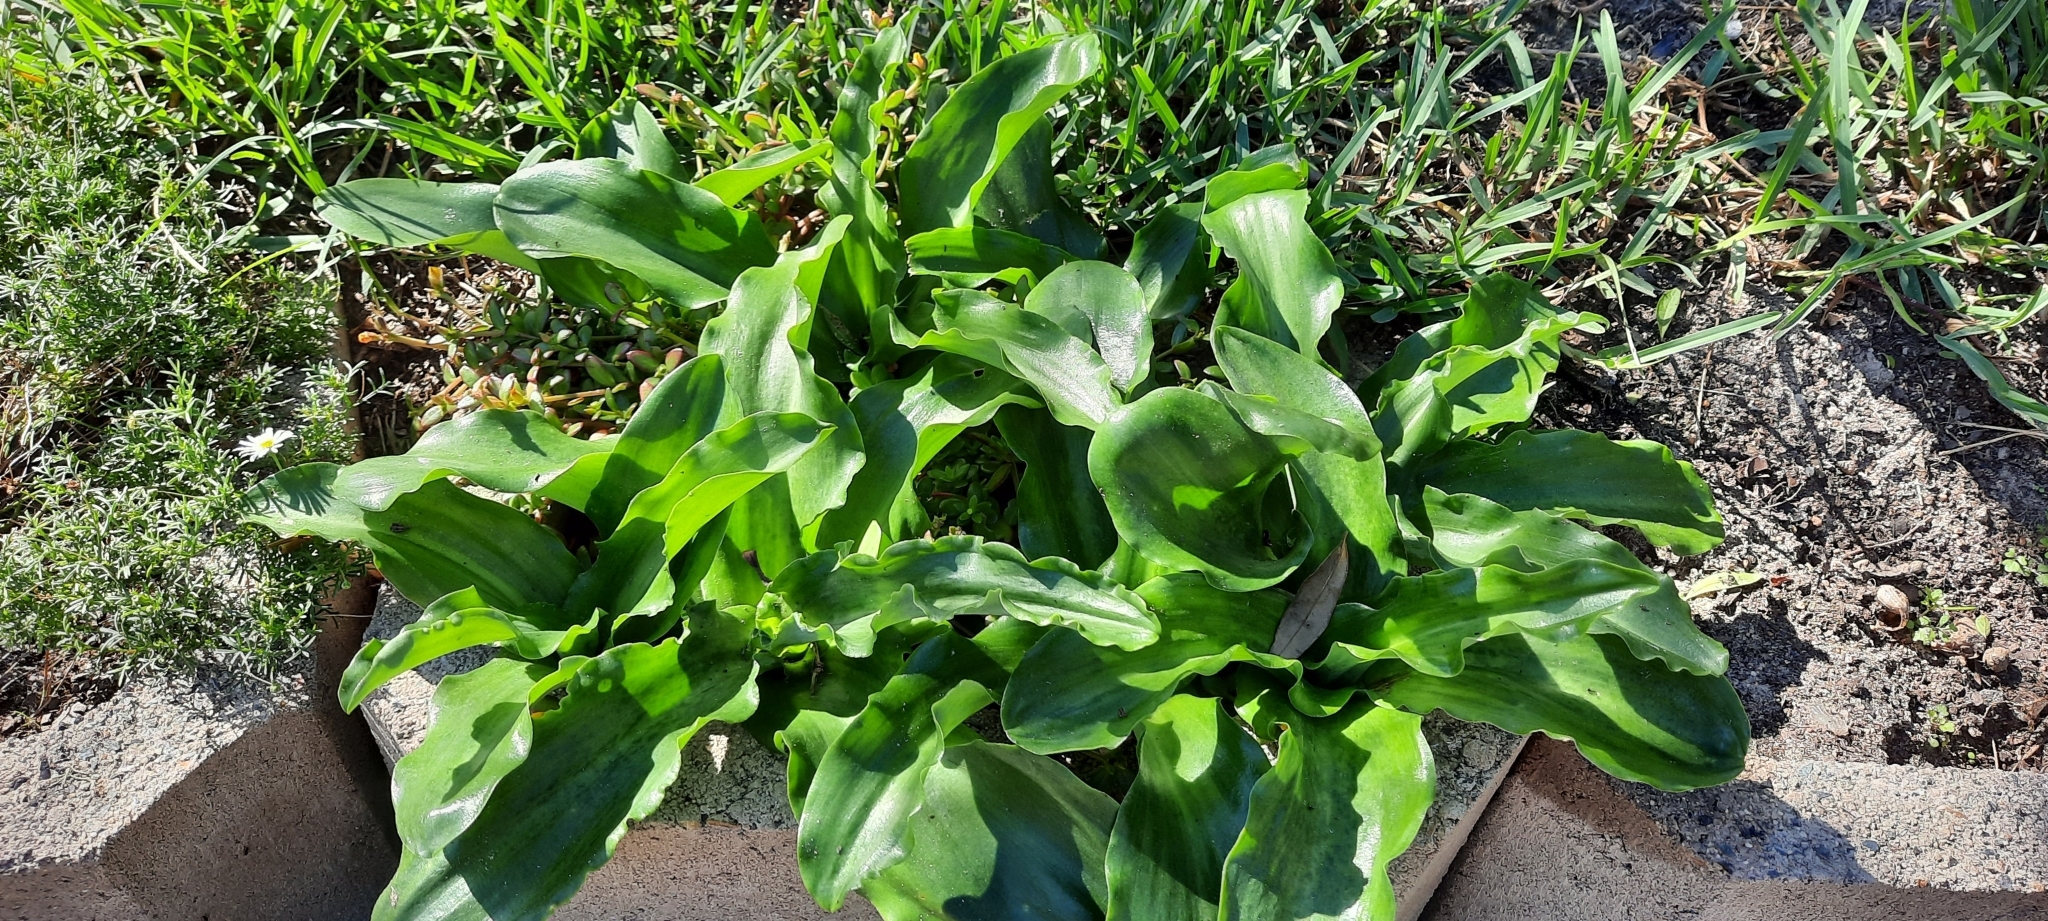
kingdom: Plantae
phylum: Tracheophyta
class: Liliopsida
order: Asparagales
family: Asparagaceae
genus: Veltheimia
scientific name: Veltheimia bracteata
